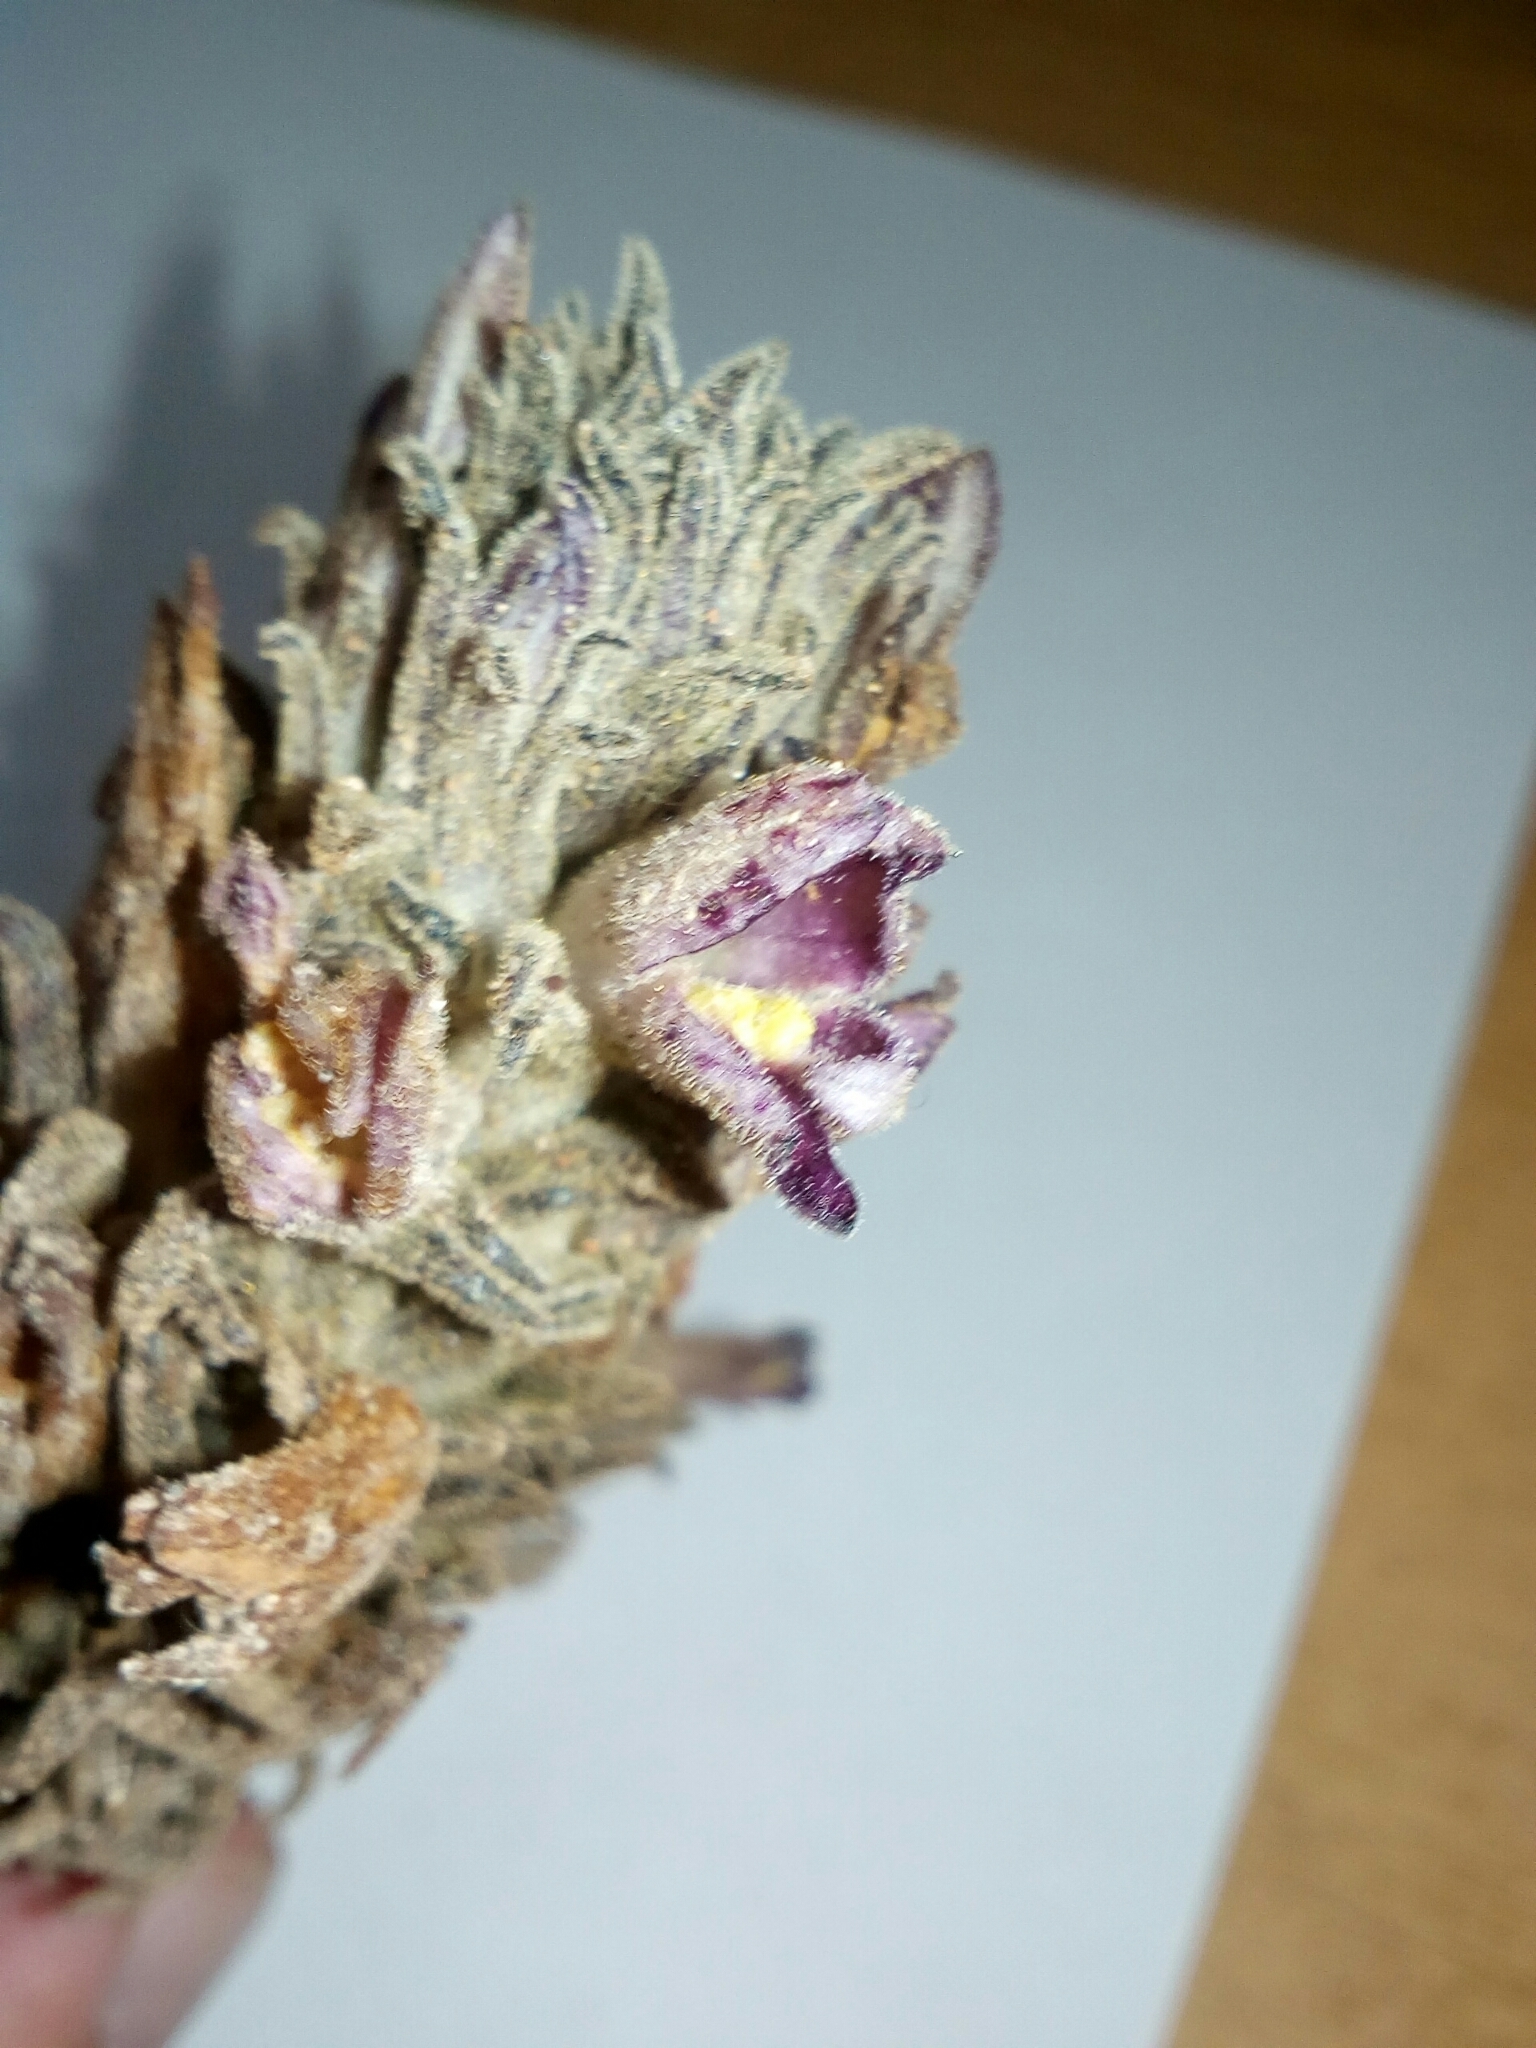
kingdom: Plantae
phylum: Tracheophyta
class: Magnoliopsida
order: Lamiales
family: Orobanchaceae
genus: Aphyllon
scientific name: Aphyllon chilense
